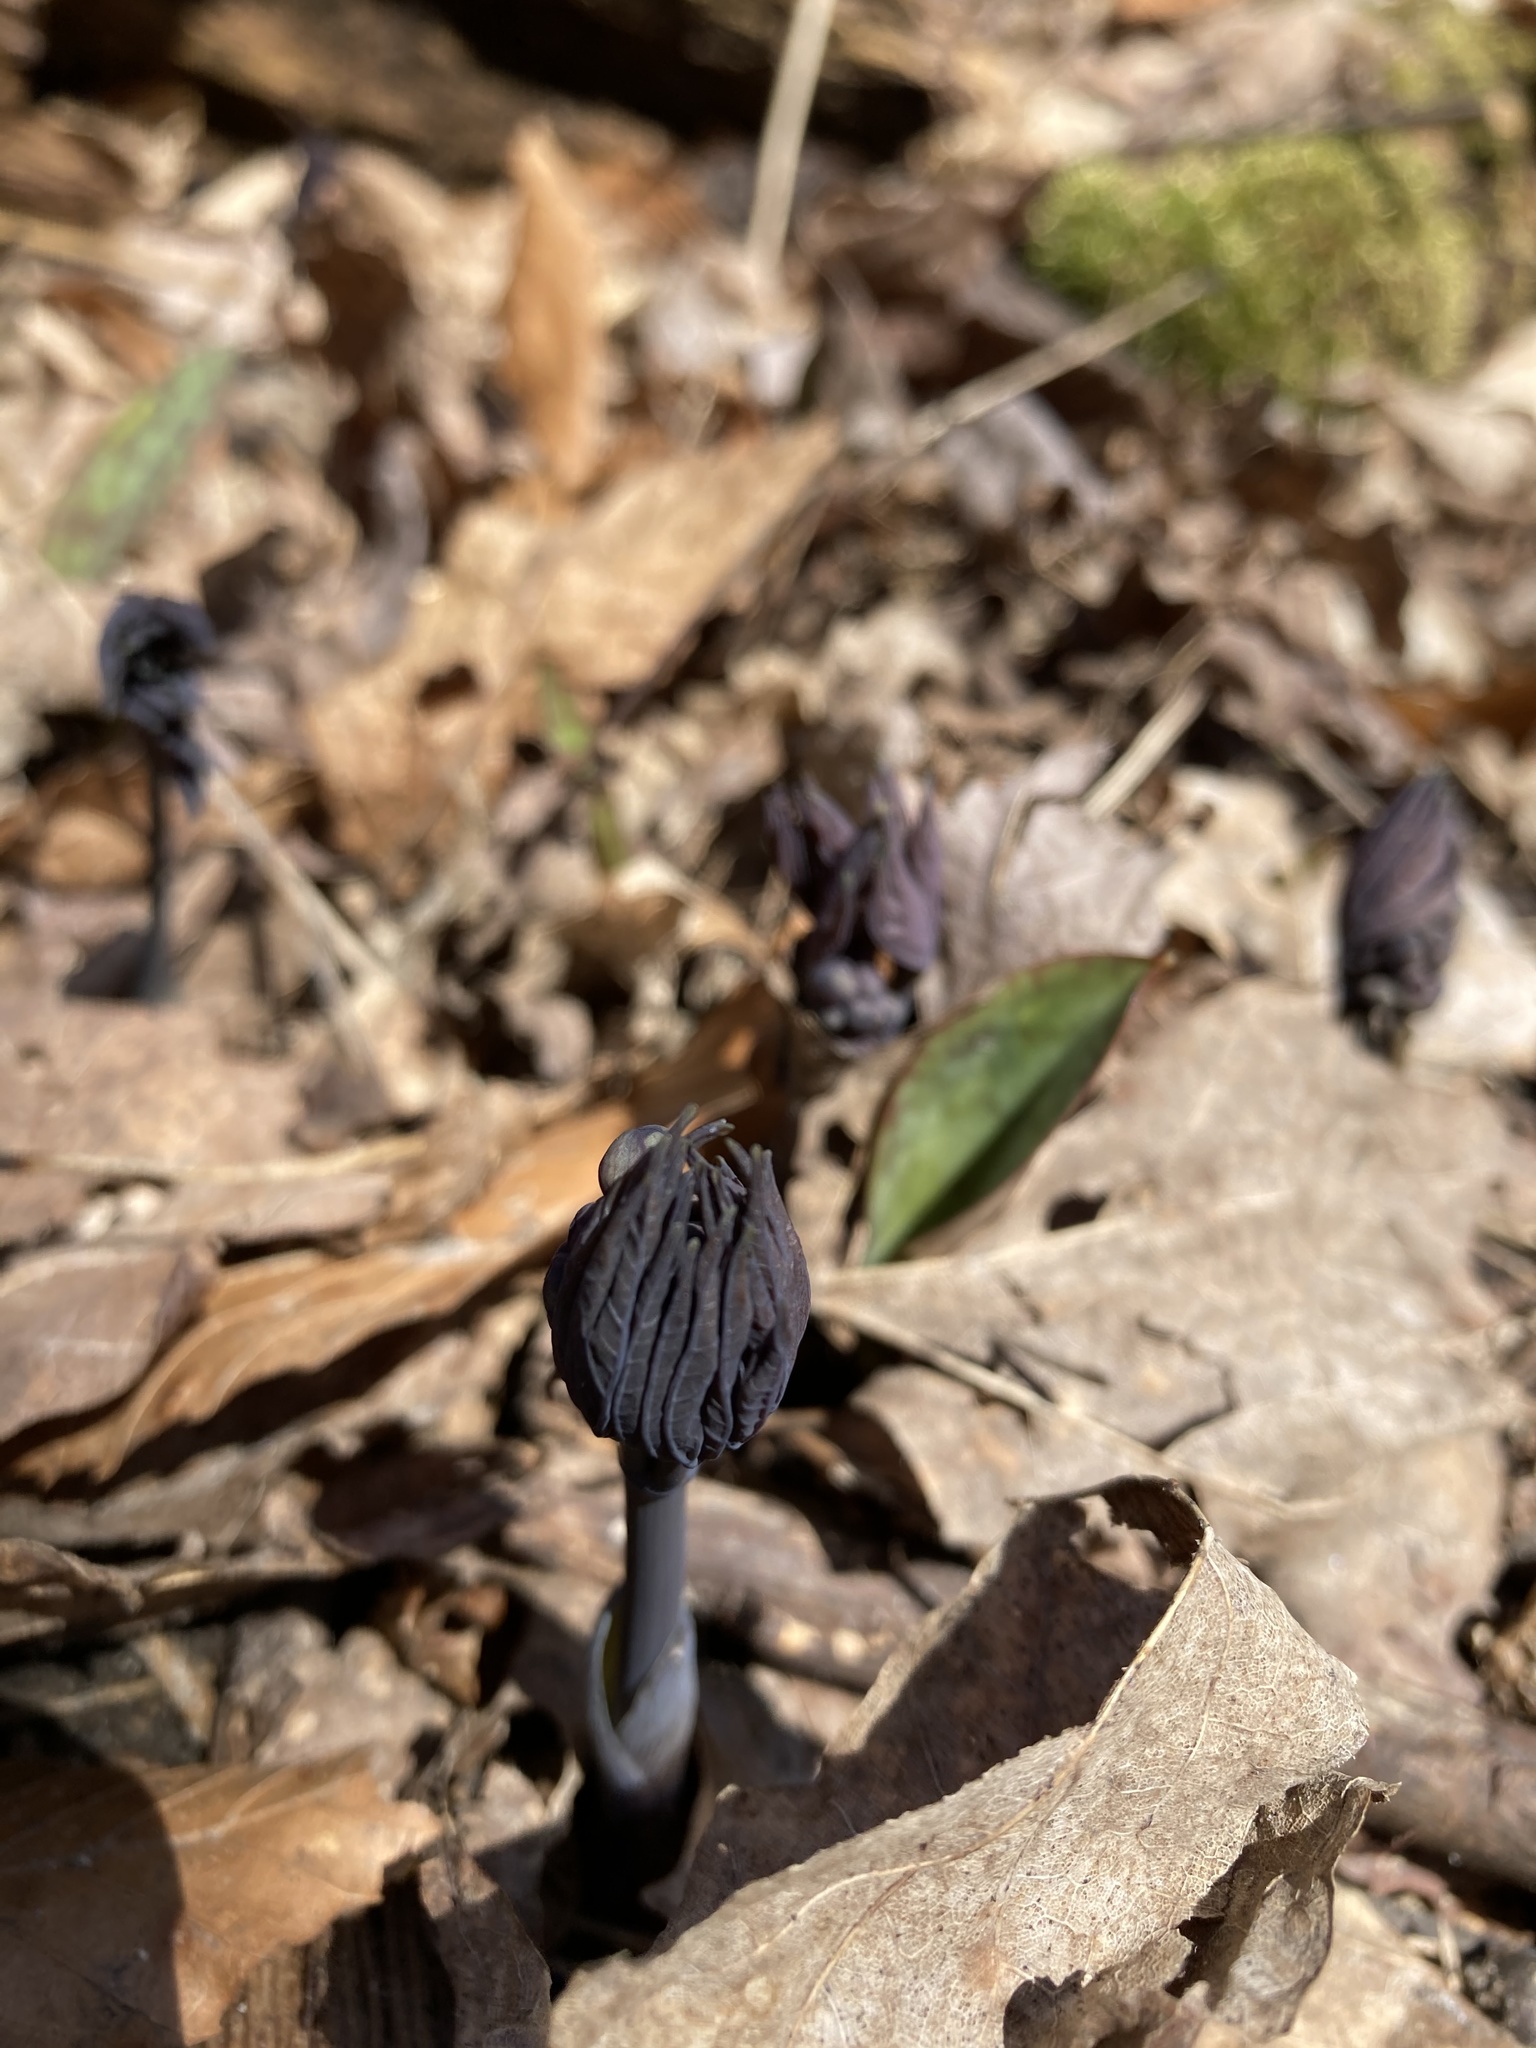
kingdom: Plantae
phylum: Tracheophyta
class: Magnoliopsida
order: Ranunculales
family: Berberidaceae
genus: Caulophyllum
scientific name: Caulophyllum giganteum
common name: Blue cohosh
